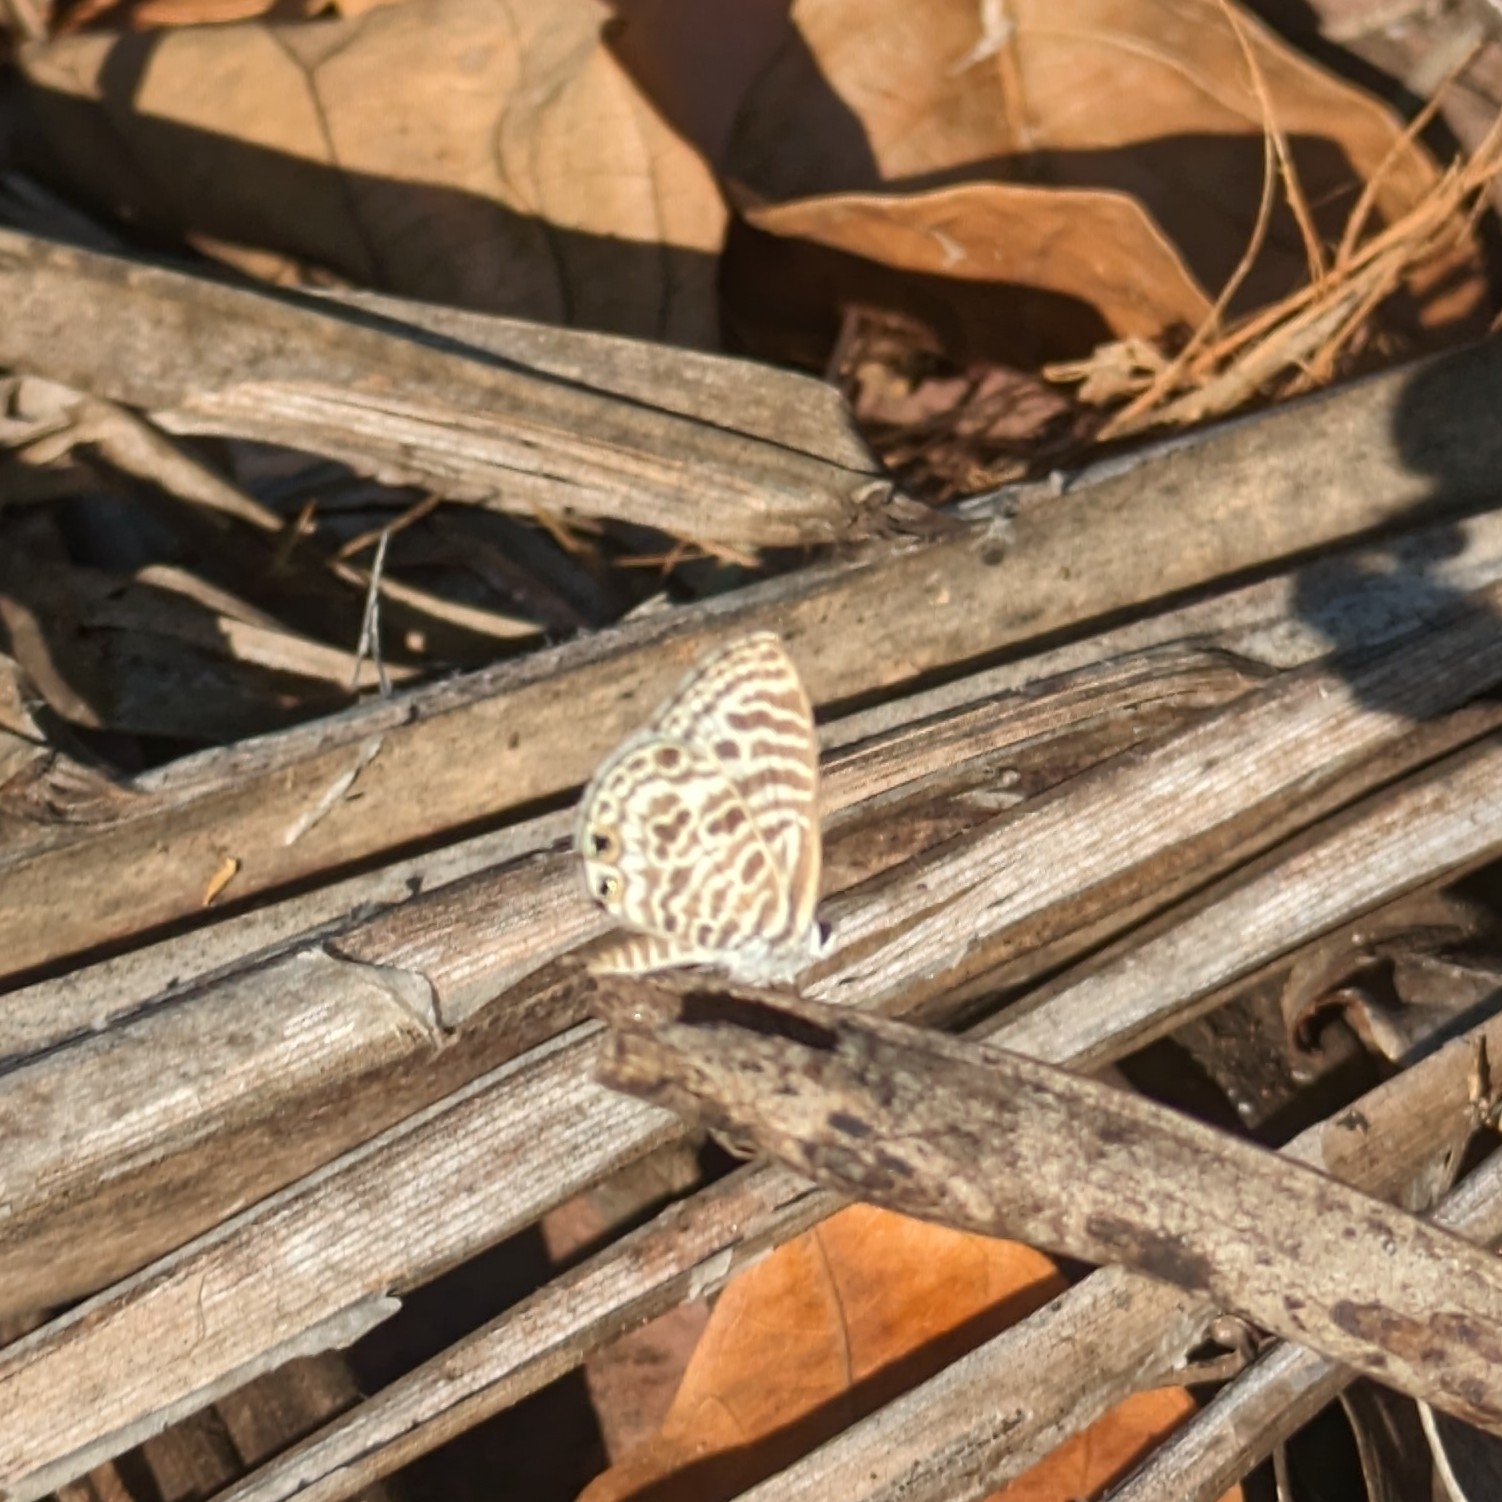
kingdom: Animalia
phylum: Arthropoda
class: Insecta
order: Lepidoptera
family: Lycaenidae
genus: Leptotes
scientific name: Leptotes plinius
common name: Zebra blue
